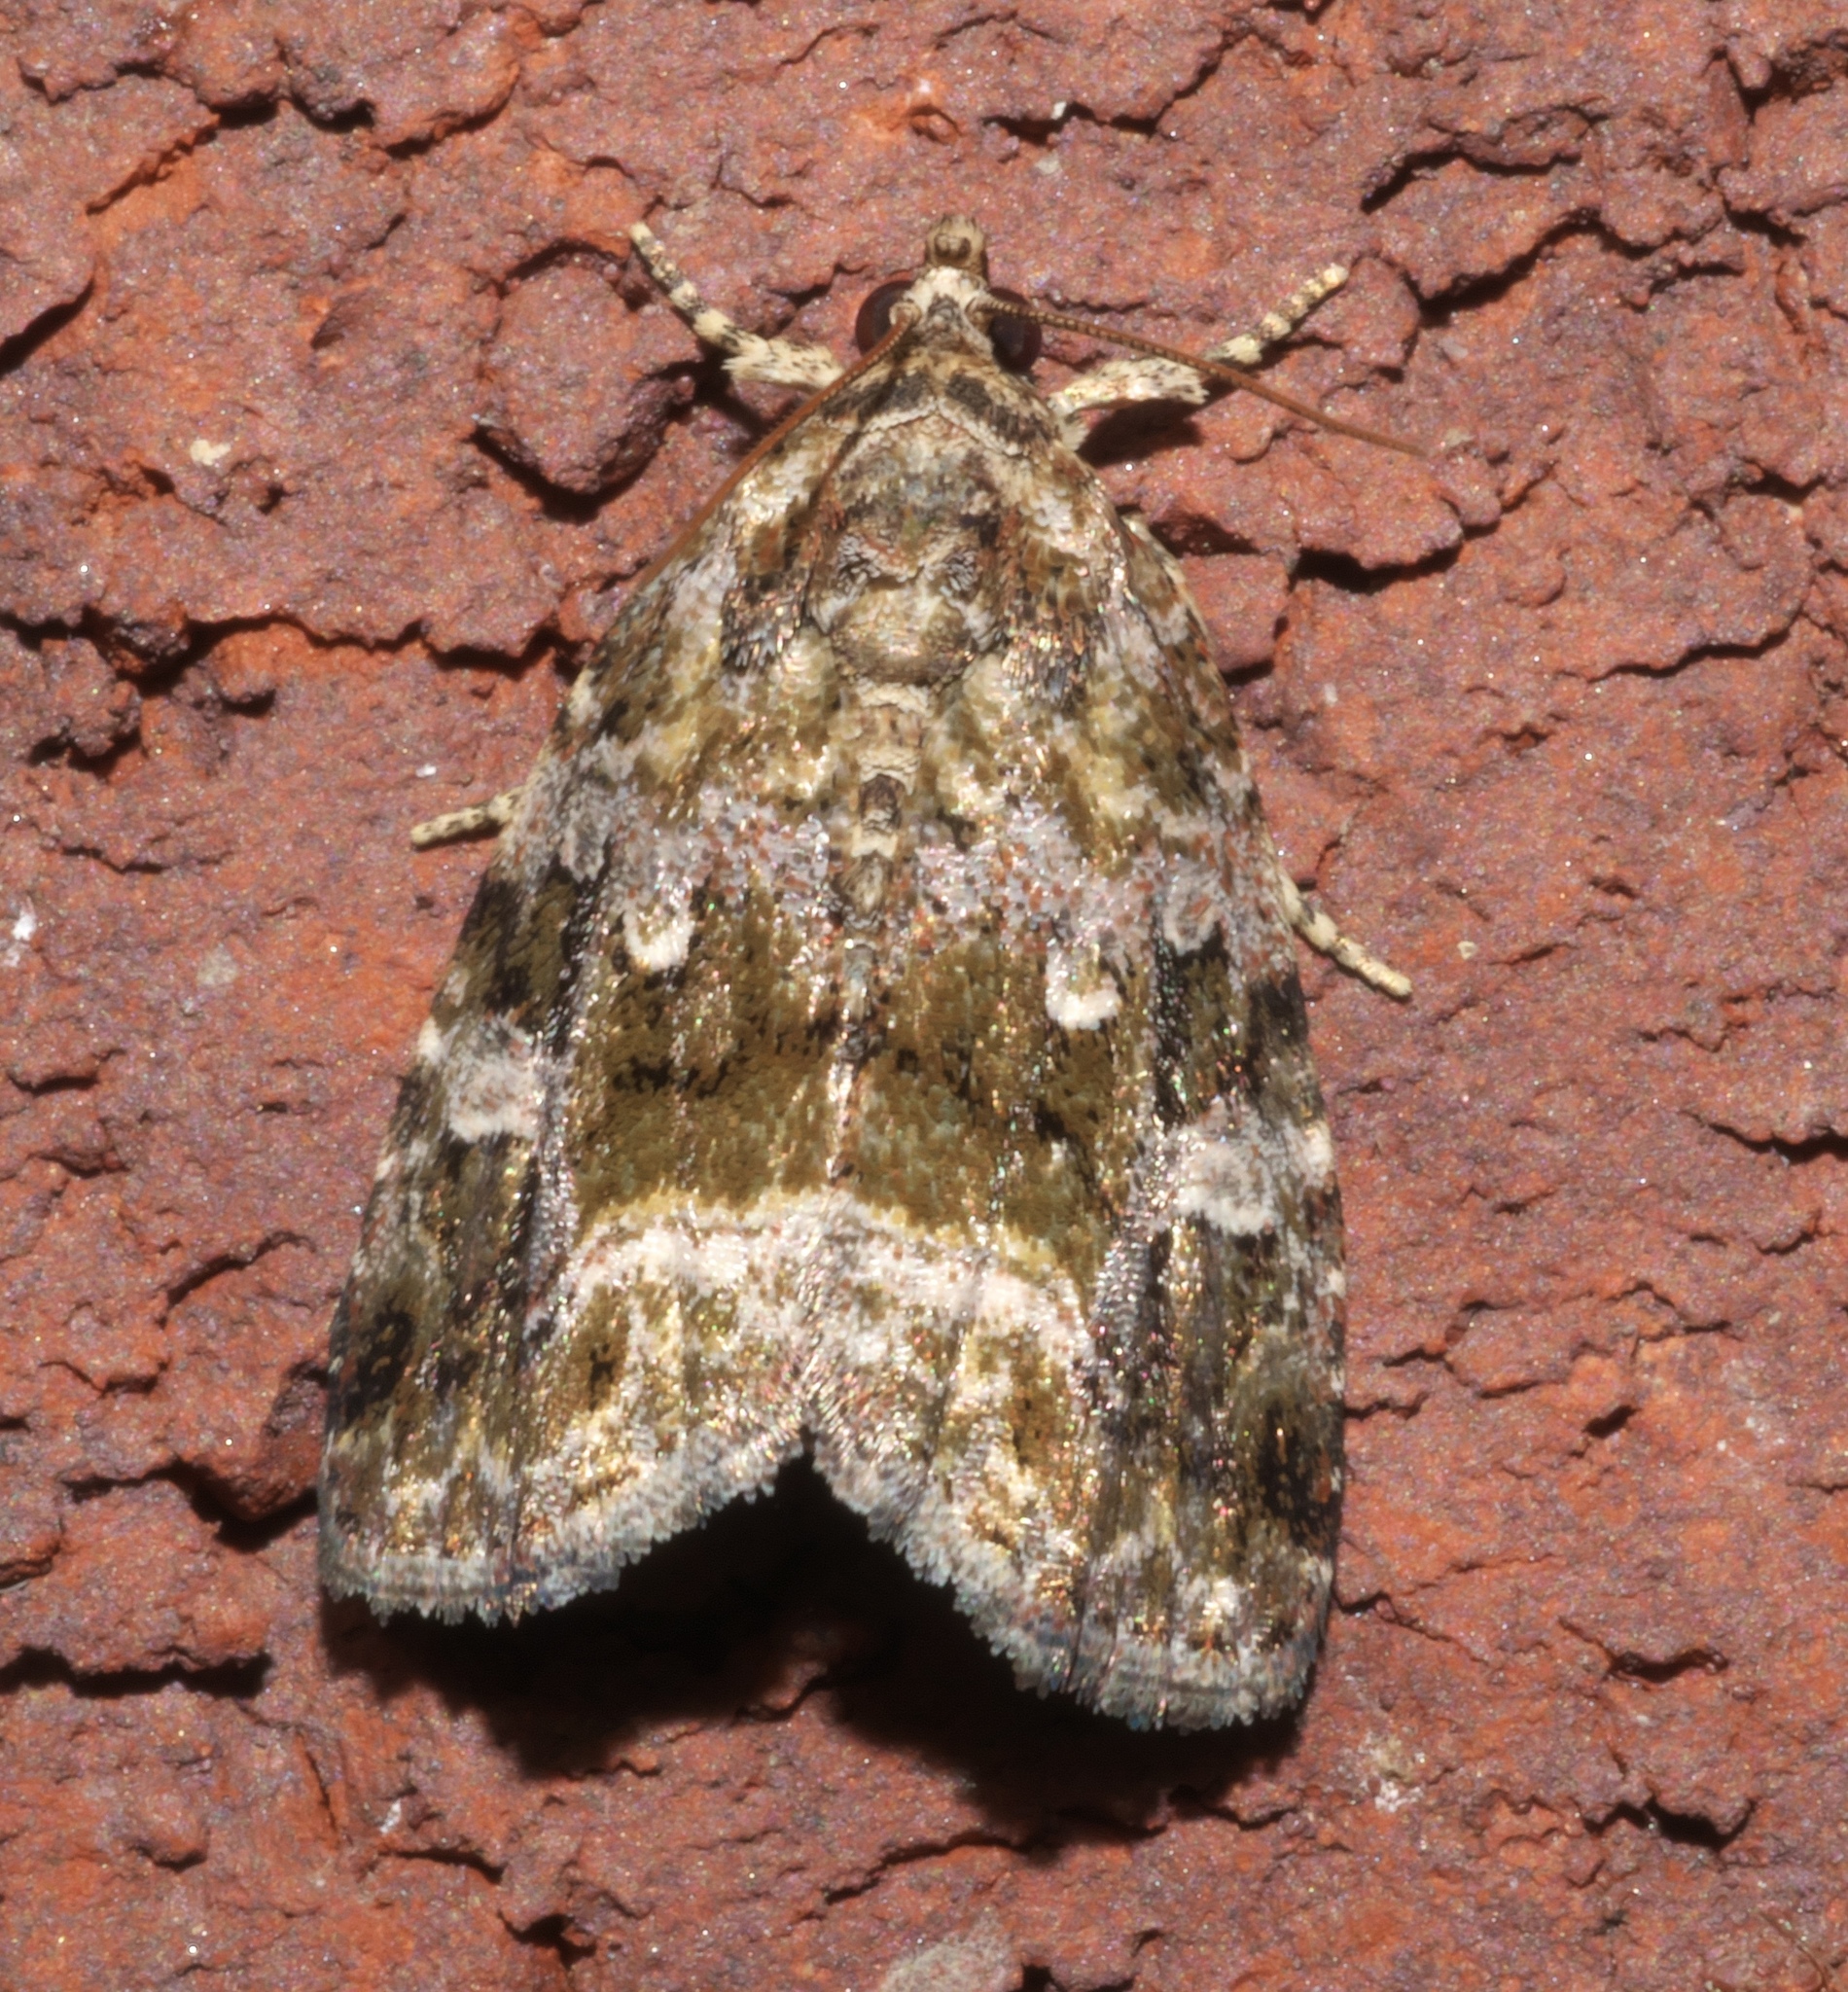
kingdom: Animalia
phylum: Arthropoda
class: Insecta
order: Lepidoptera
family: Noctuidae
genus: Protodeltote
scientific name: Protodeltote muscosula
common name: Large mossy glyph
